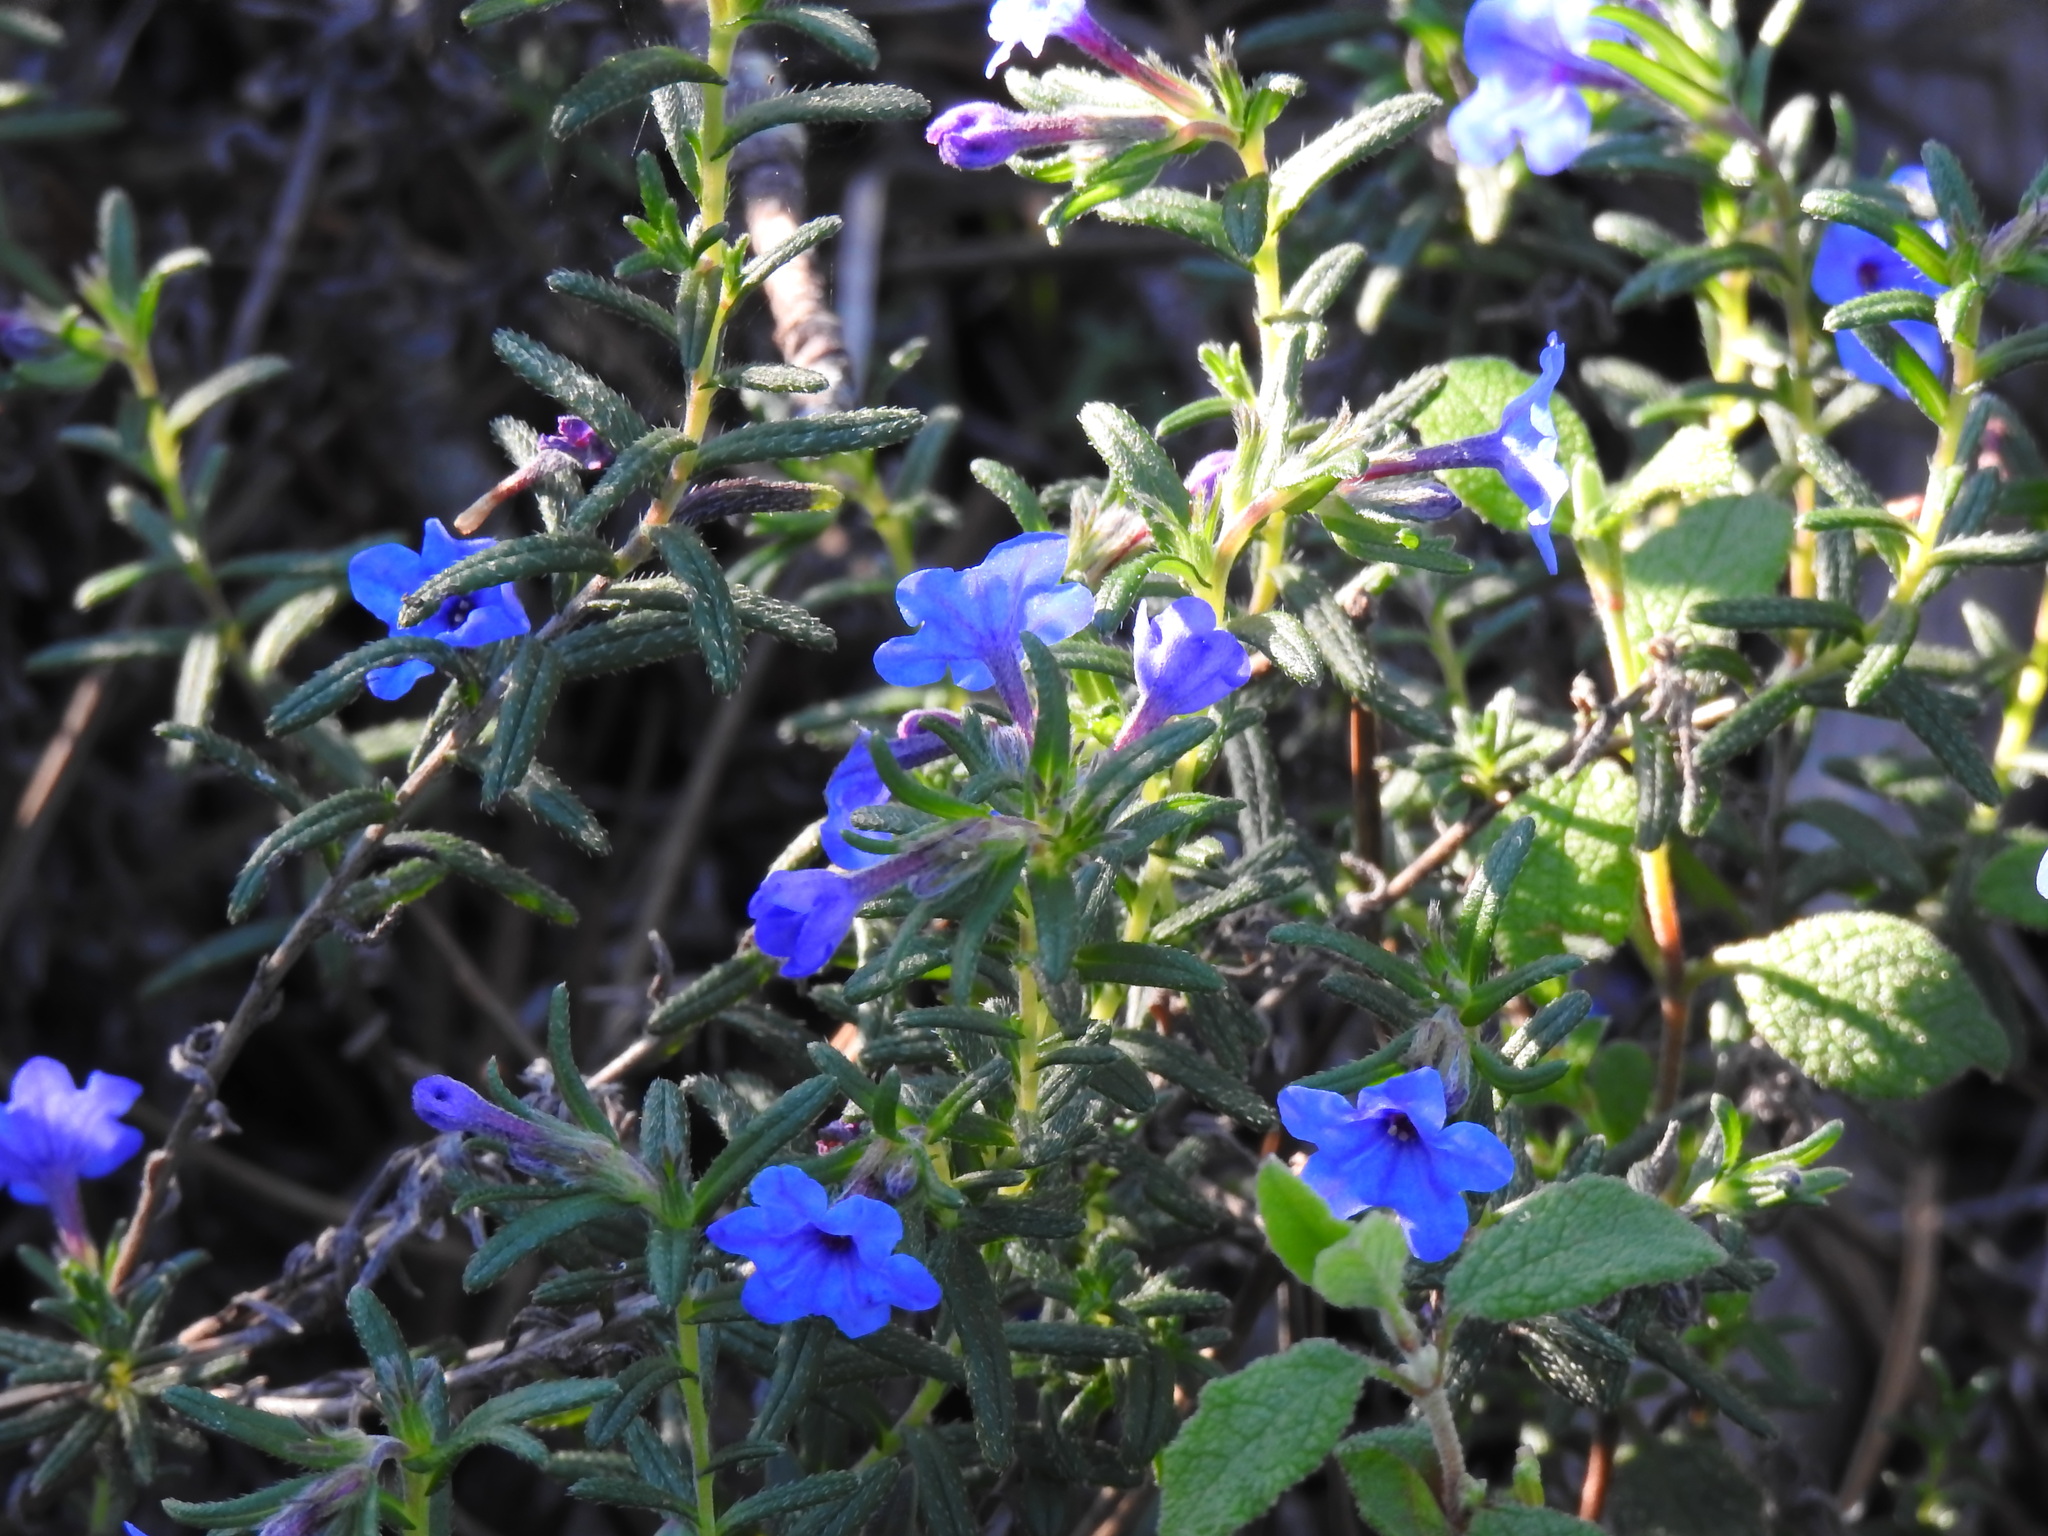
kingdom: Plantae
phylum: Tracheophyta
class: Magnoliopsida
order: Boraginales
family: Boraginaceae
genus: Glandora
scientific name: Glandora prostrata
